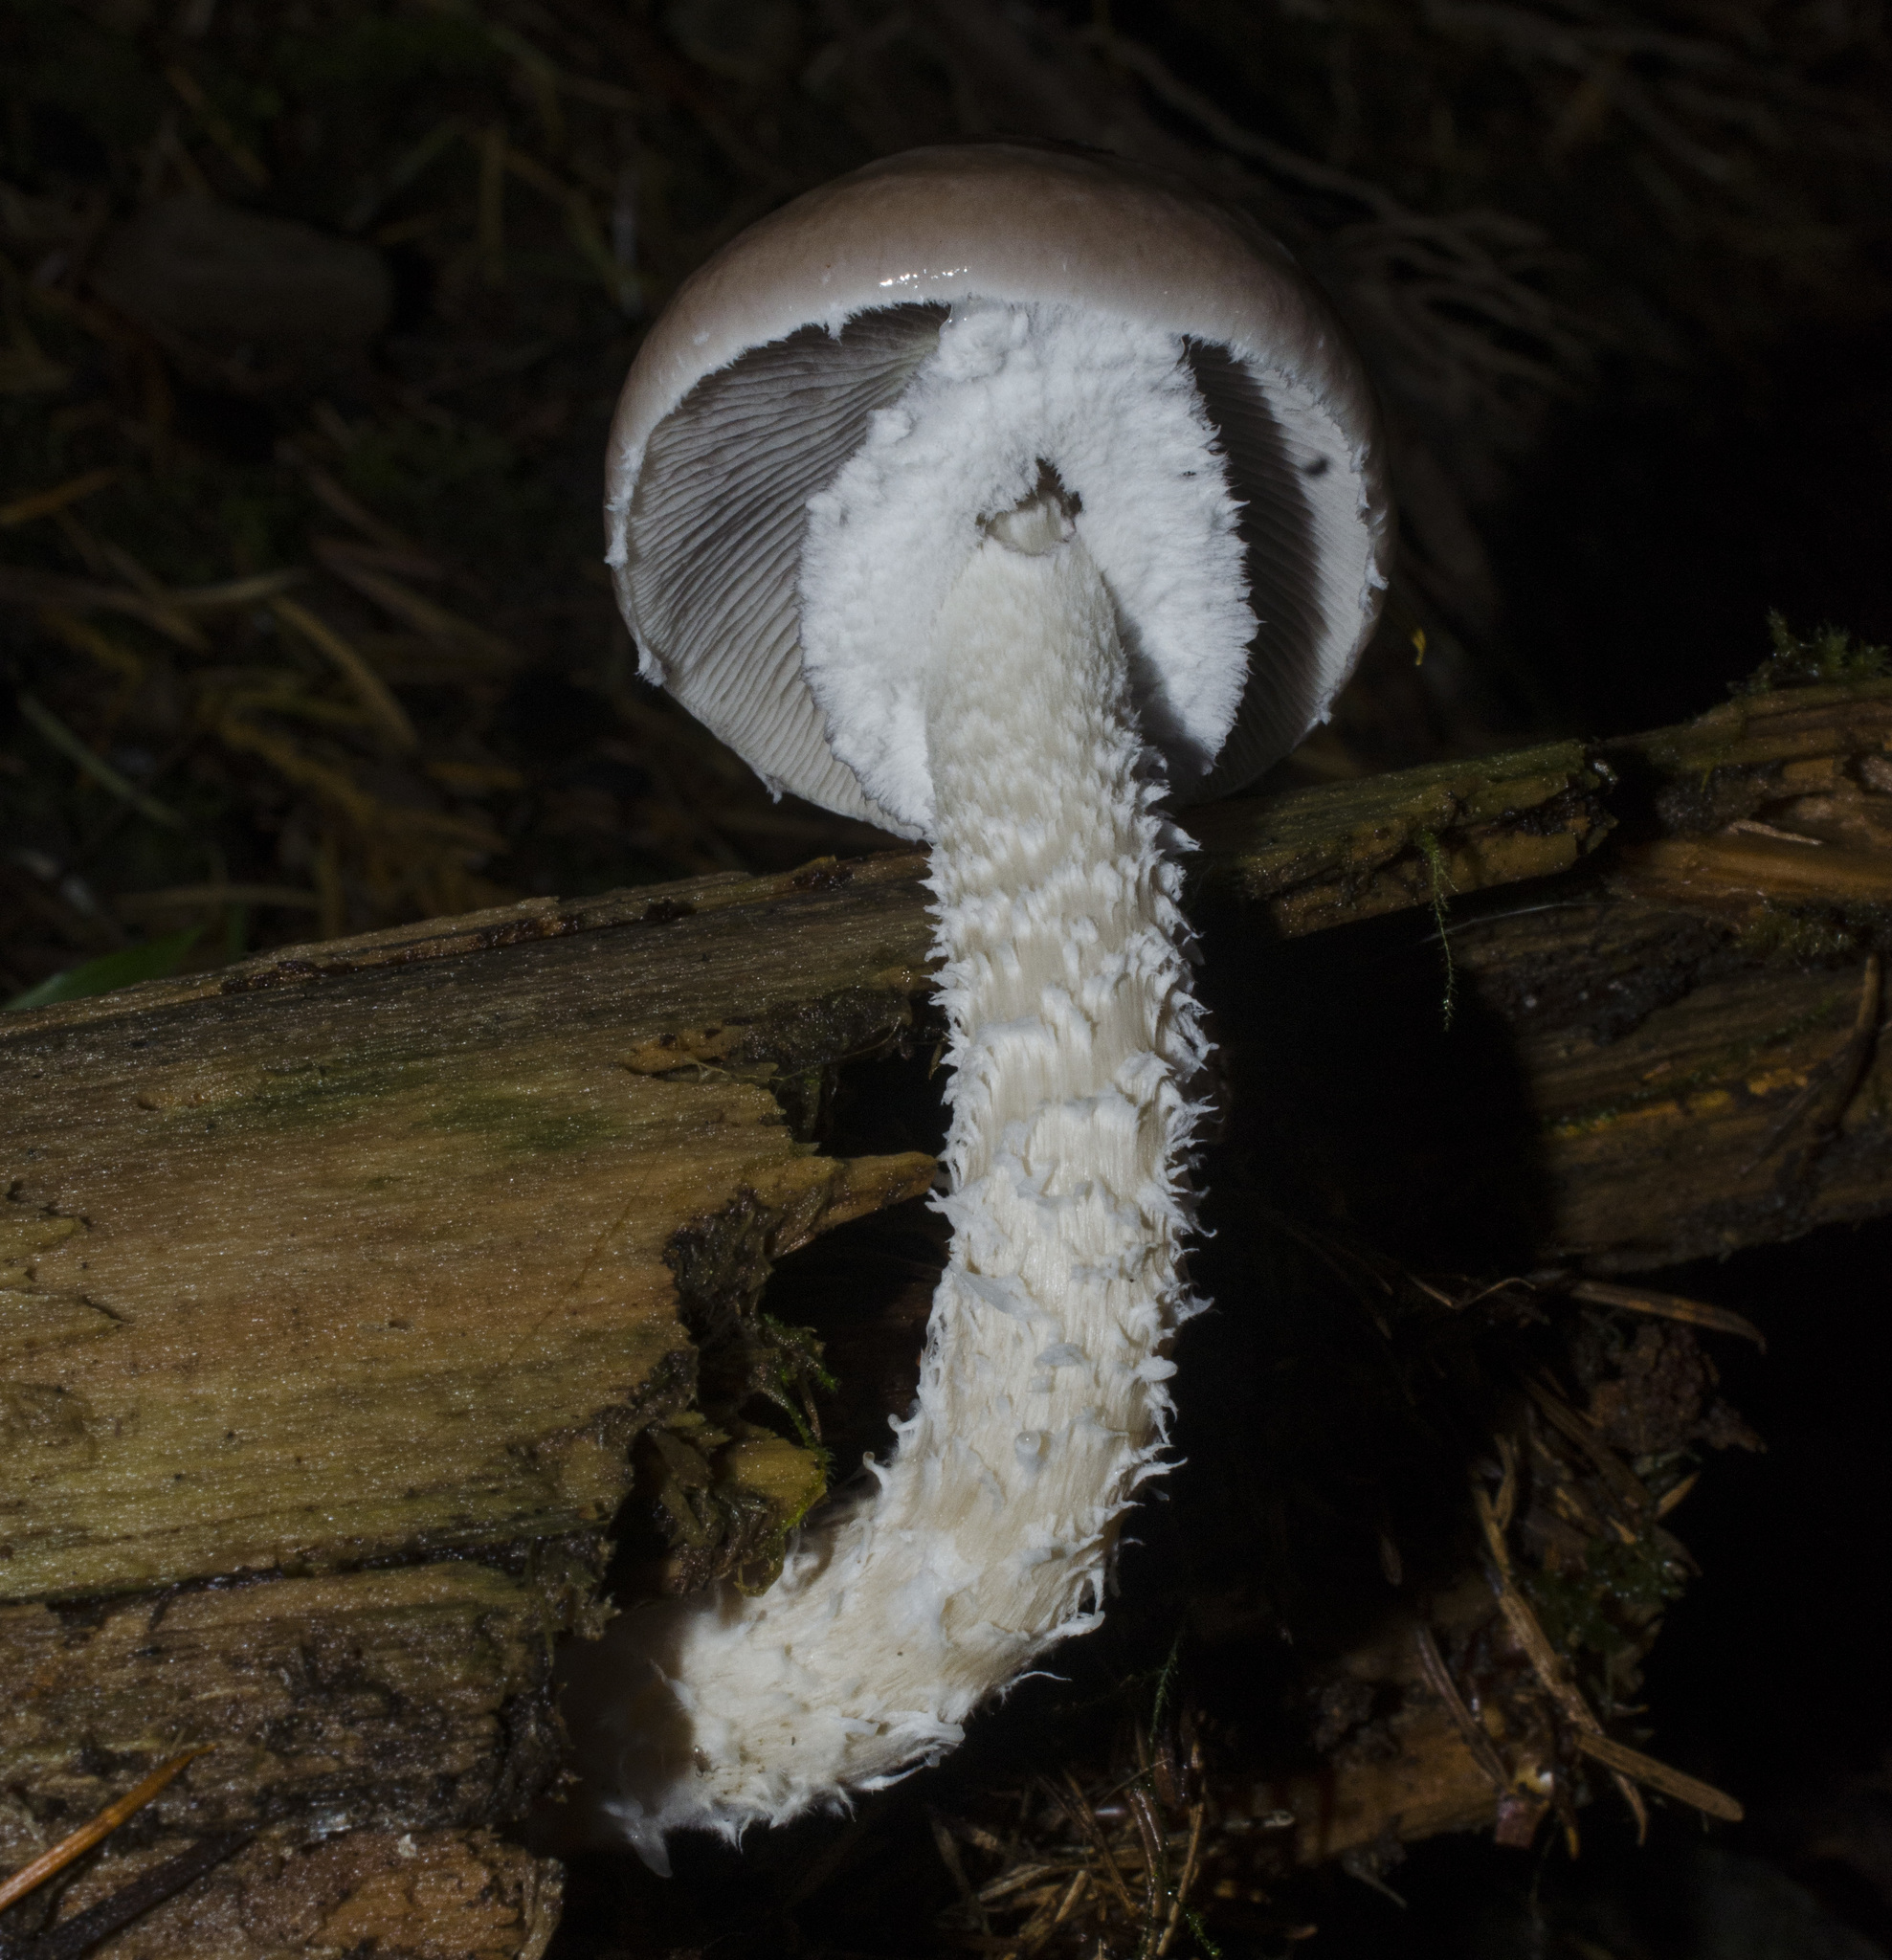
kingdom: Fungi
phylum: Basidiomycota
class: Agaricomycetes
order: Agaricales
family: Strophariaceae
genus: Stropharia
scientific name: Stropharia hornemannii
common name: Conifer roundhead
